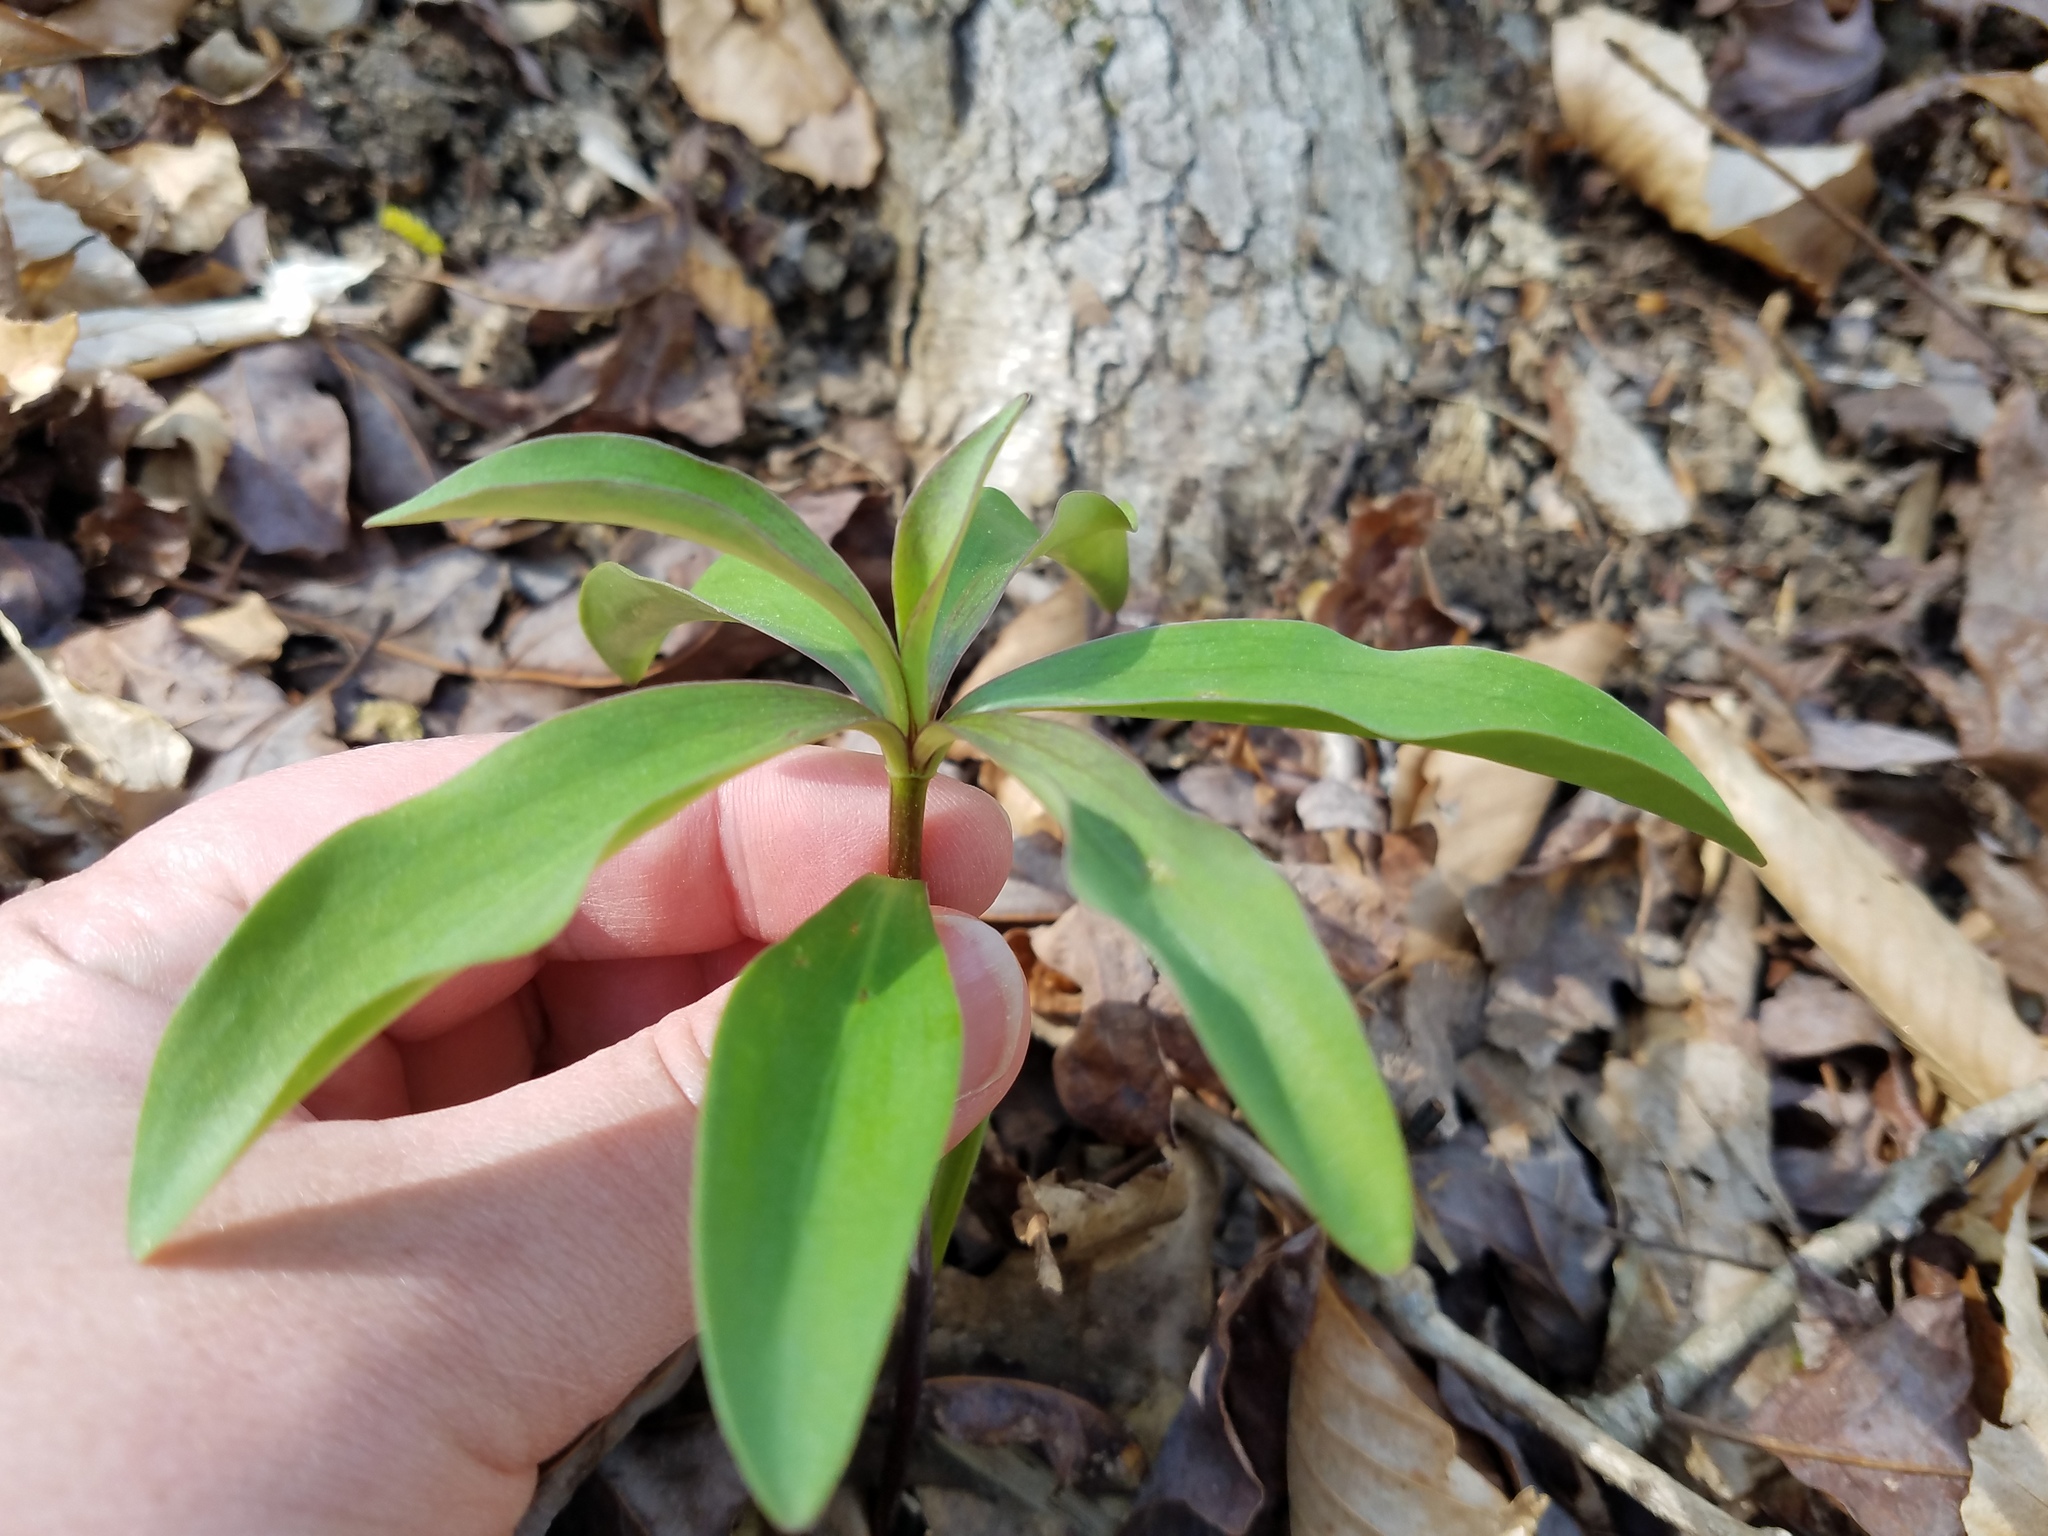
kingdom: Plantae
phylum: Tracheophyta
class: Liliopsida
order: Liliales
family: Liliaceae
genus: Lilium
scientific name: Lilium michauxii
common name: Carolina lily
